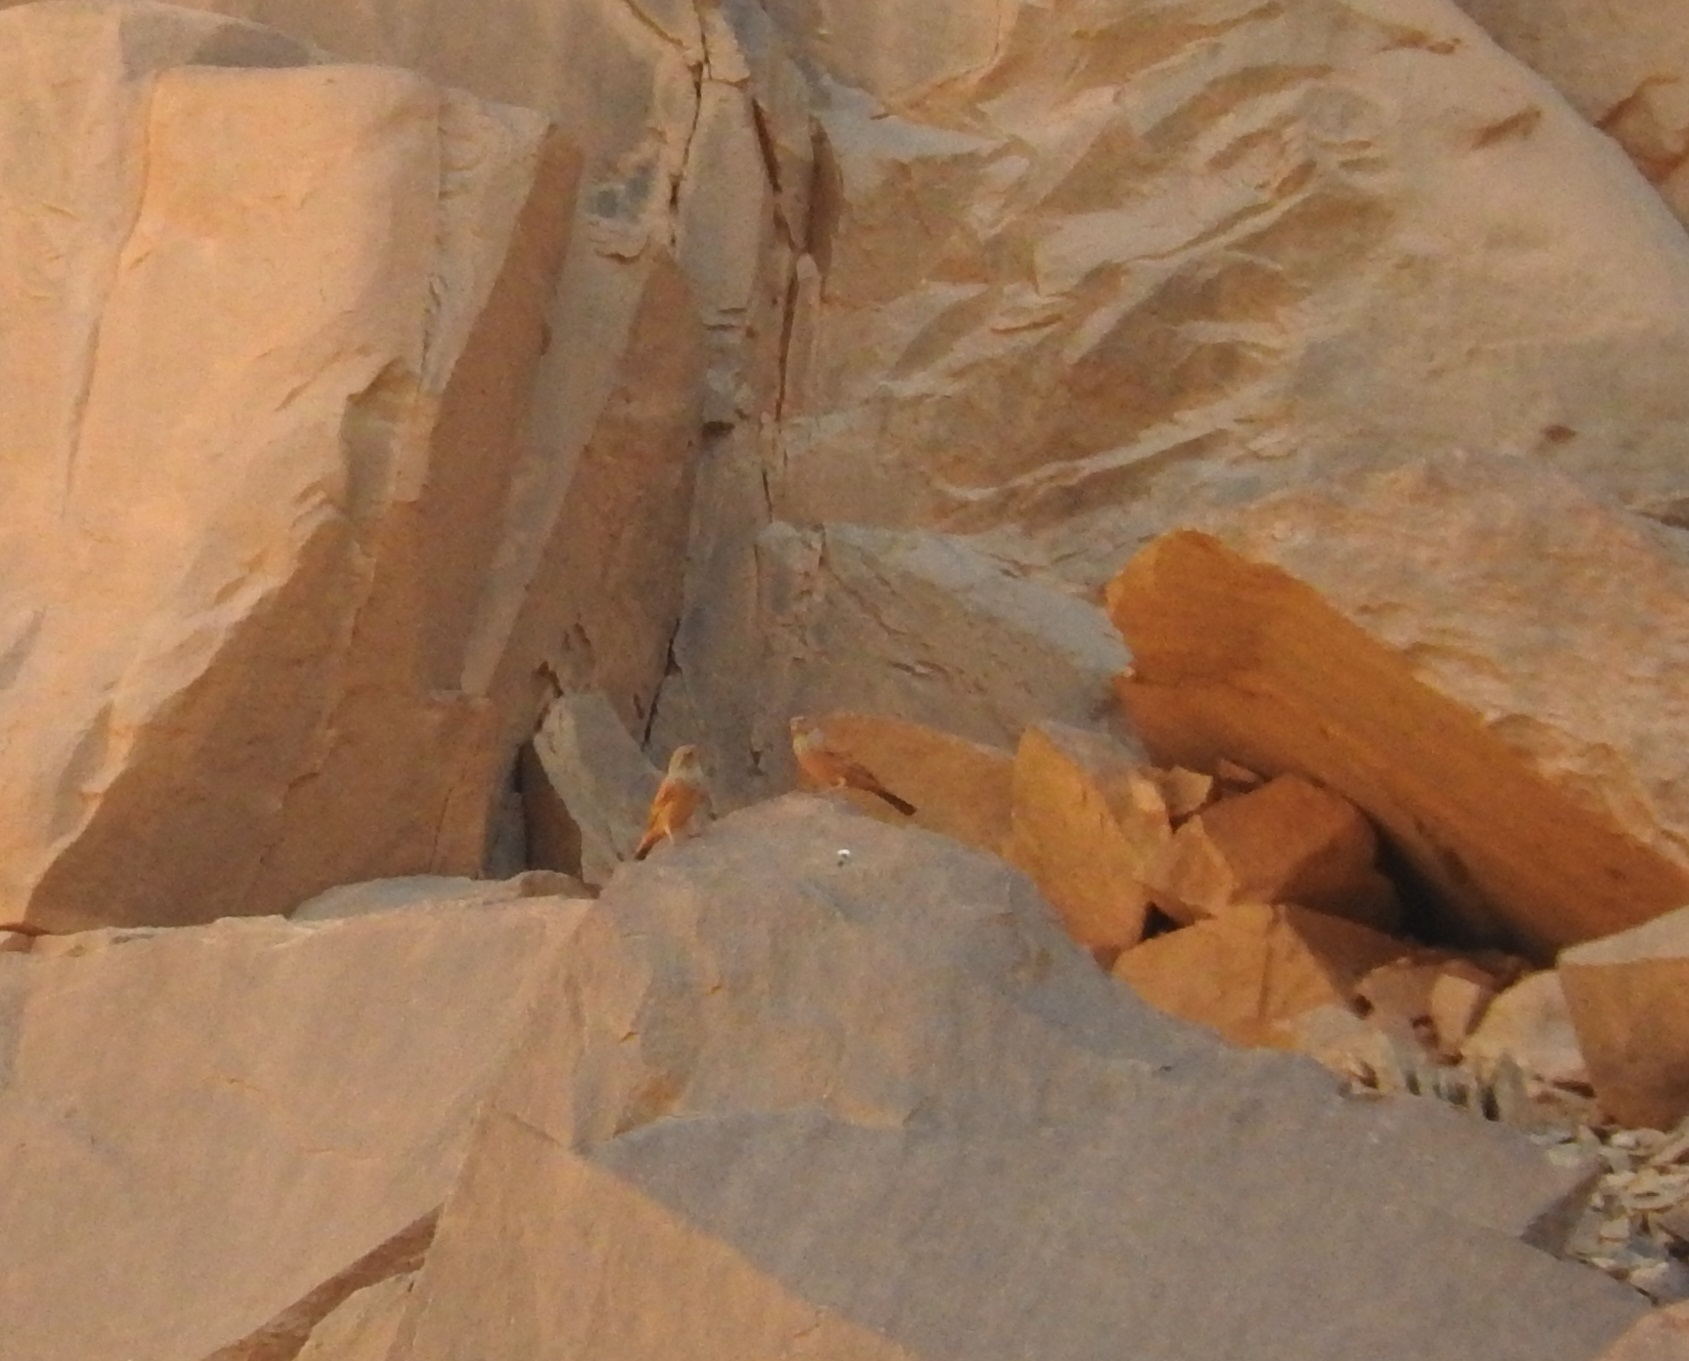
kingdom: Animalia
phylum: Chordata
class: Aves
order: Passeriformes
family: Emberizidae
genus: Emberiza
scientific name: Emberiza sahari
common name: House bunting
